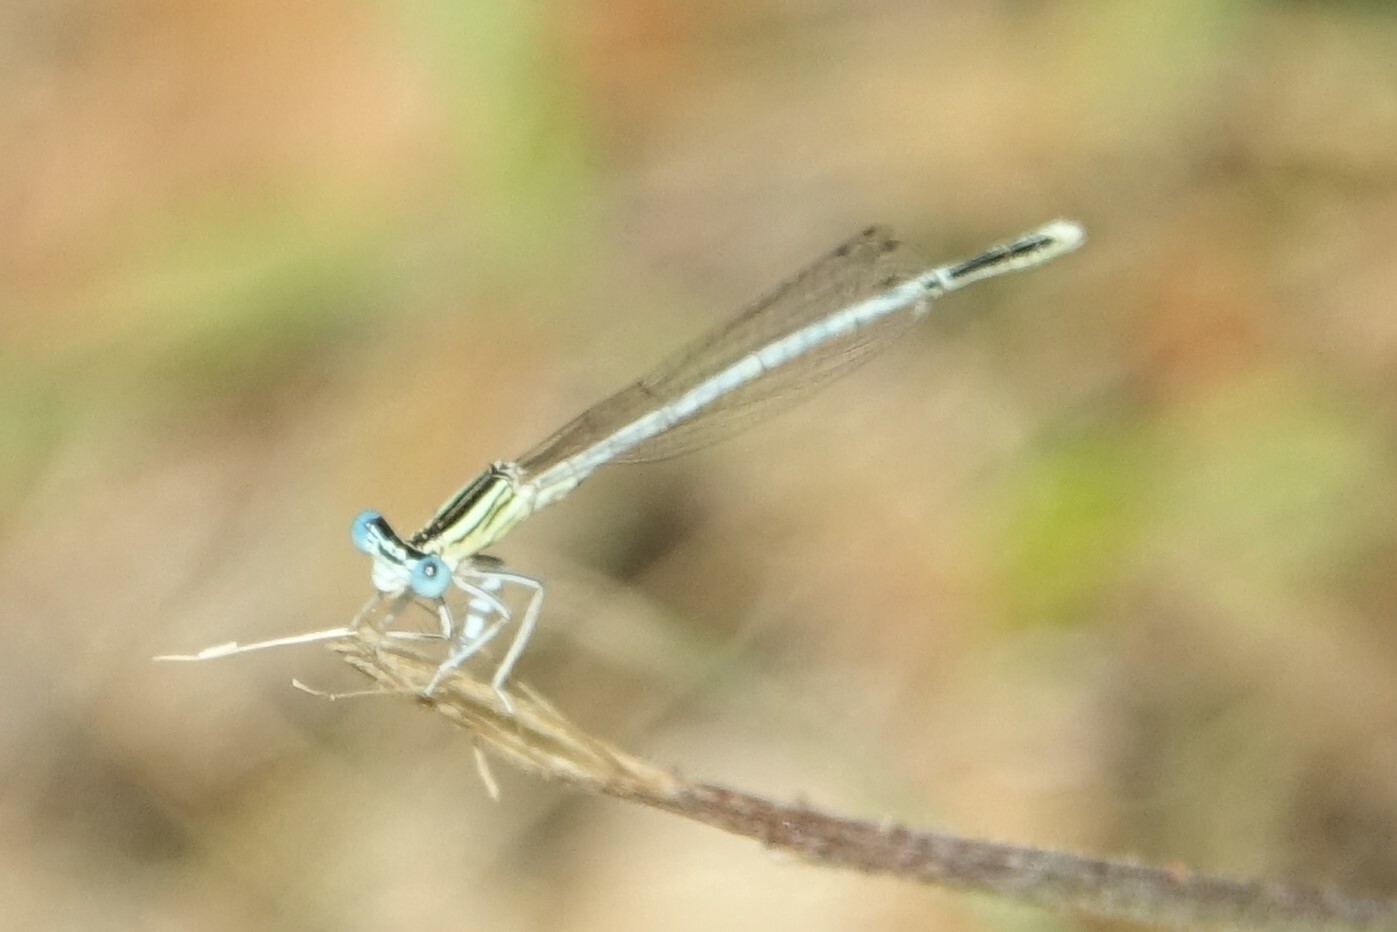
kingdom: Animalia
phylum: Arthropoda
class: Insecta
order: Odonata
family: Platycnemididae
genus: Platycnemis
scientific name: Platycnemis latipes
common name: White featherleg
